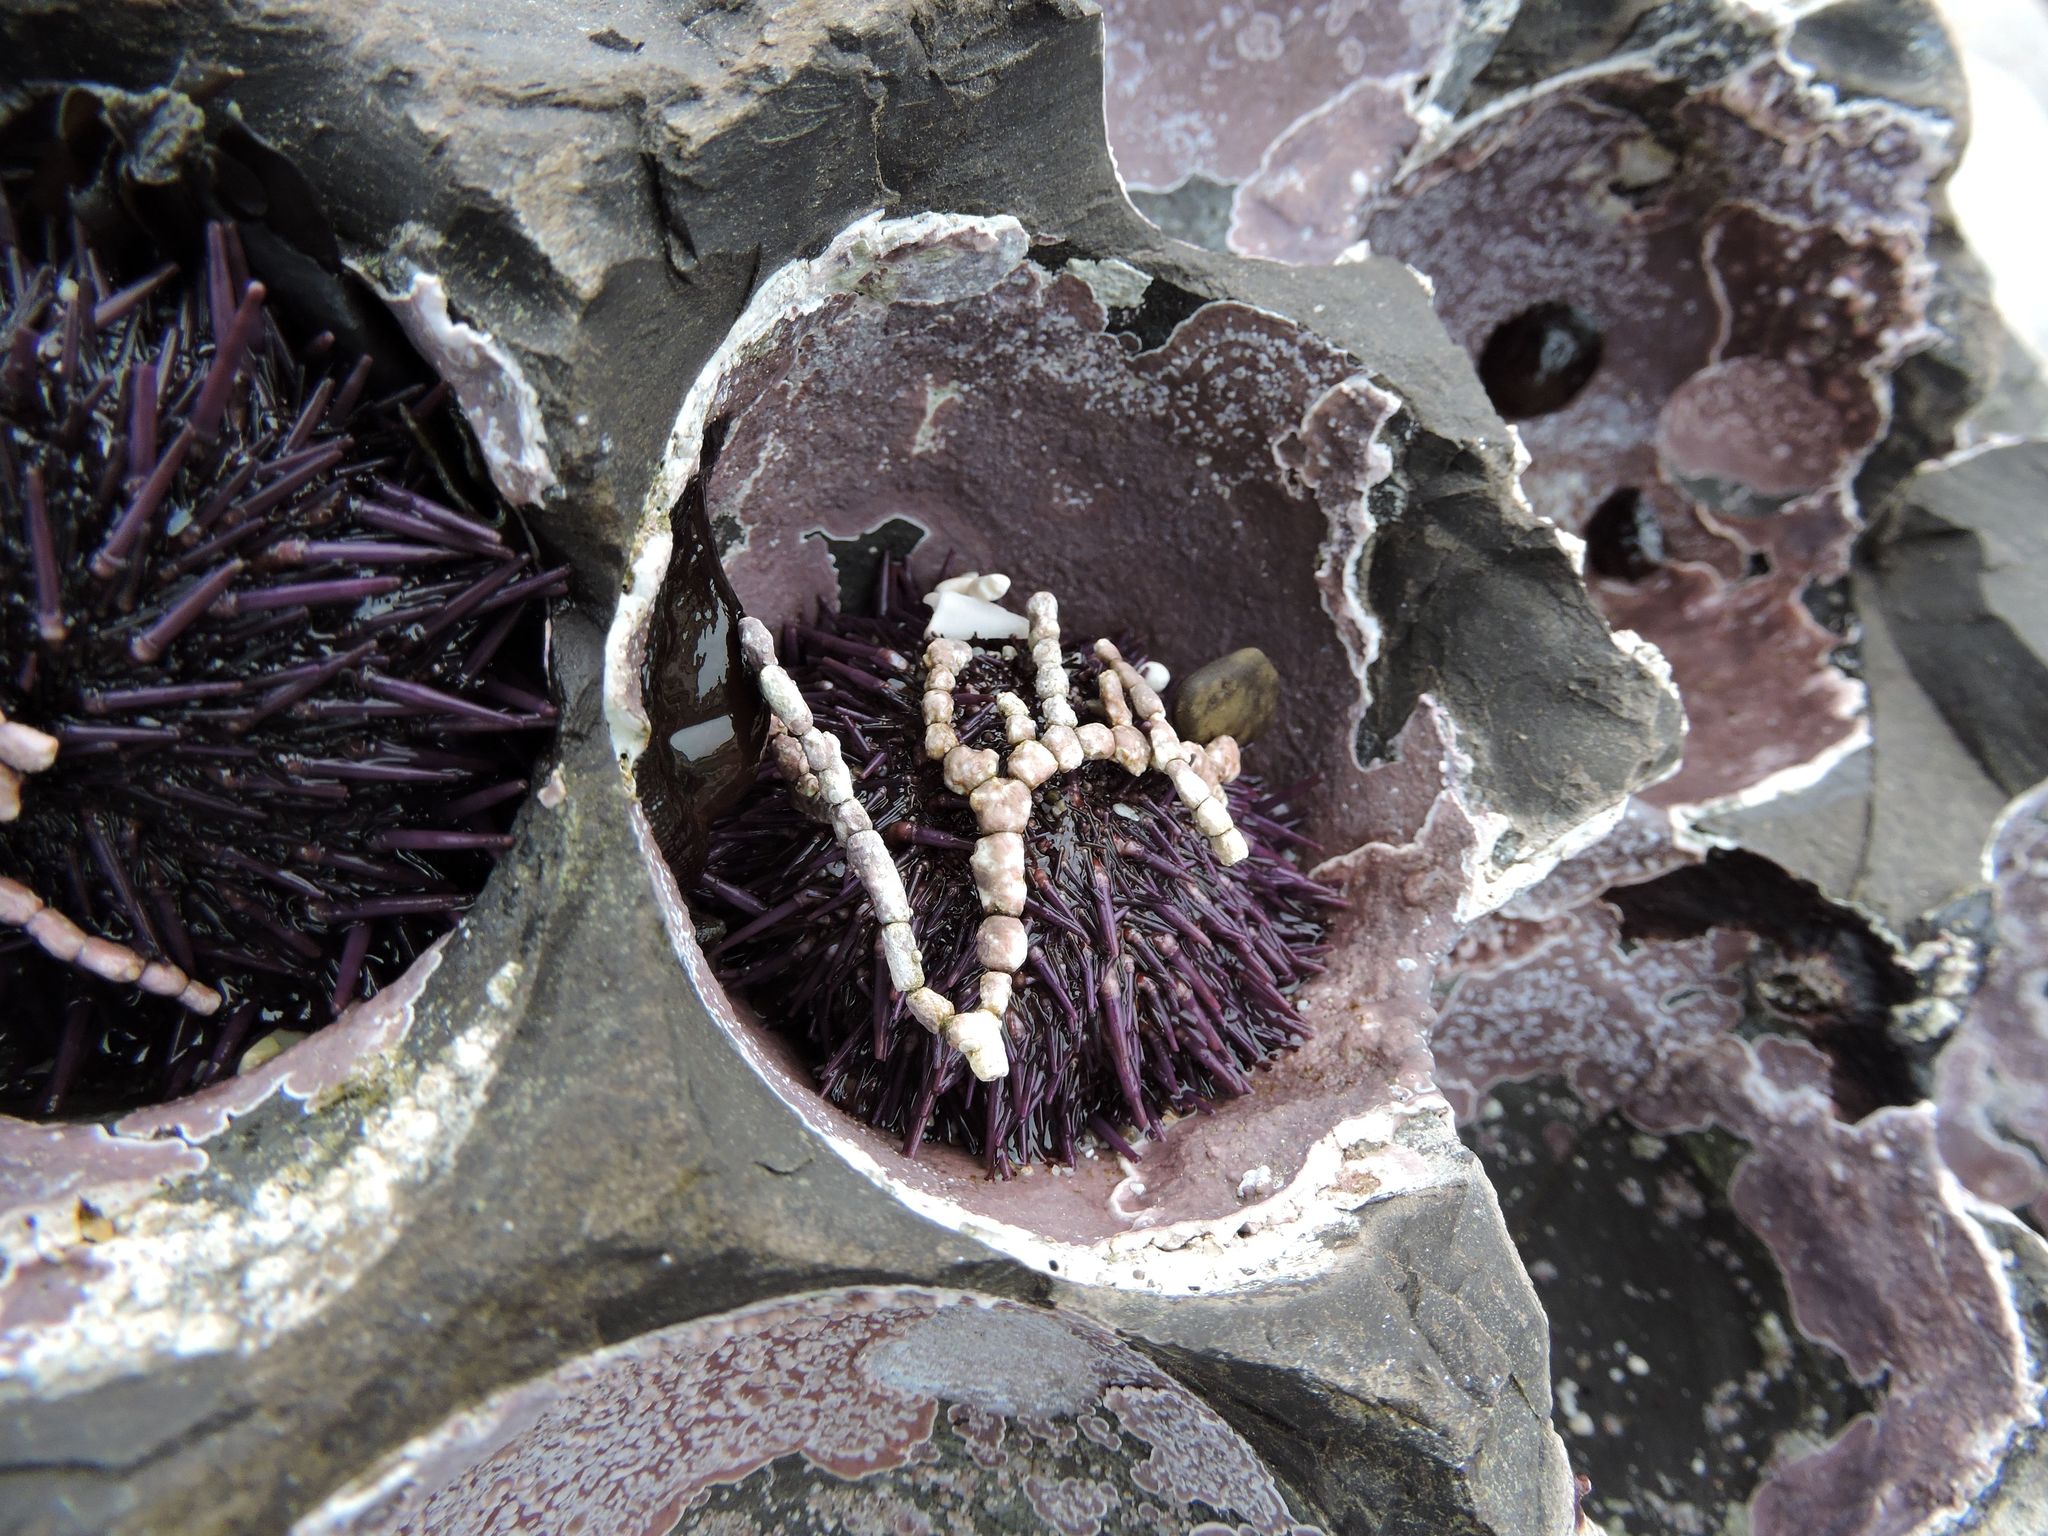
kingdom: Animalia
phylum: Echinodermata
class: Echinoidea
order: Camarodonta
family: Strongylocentrotidae
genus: Strongylocentrotus
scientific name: Strongylocentrotus purpuratus
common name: Purple sea urchin
